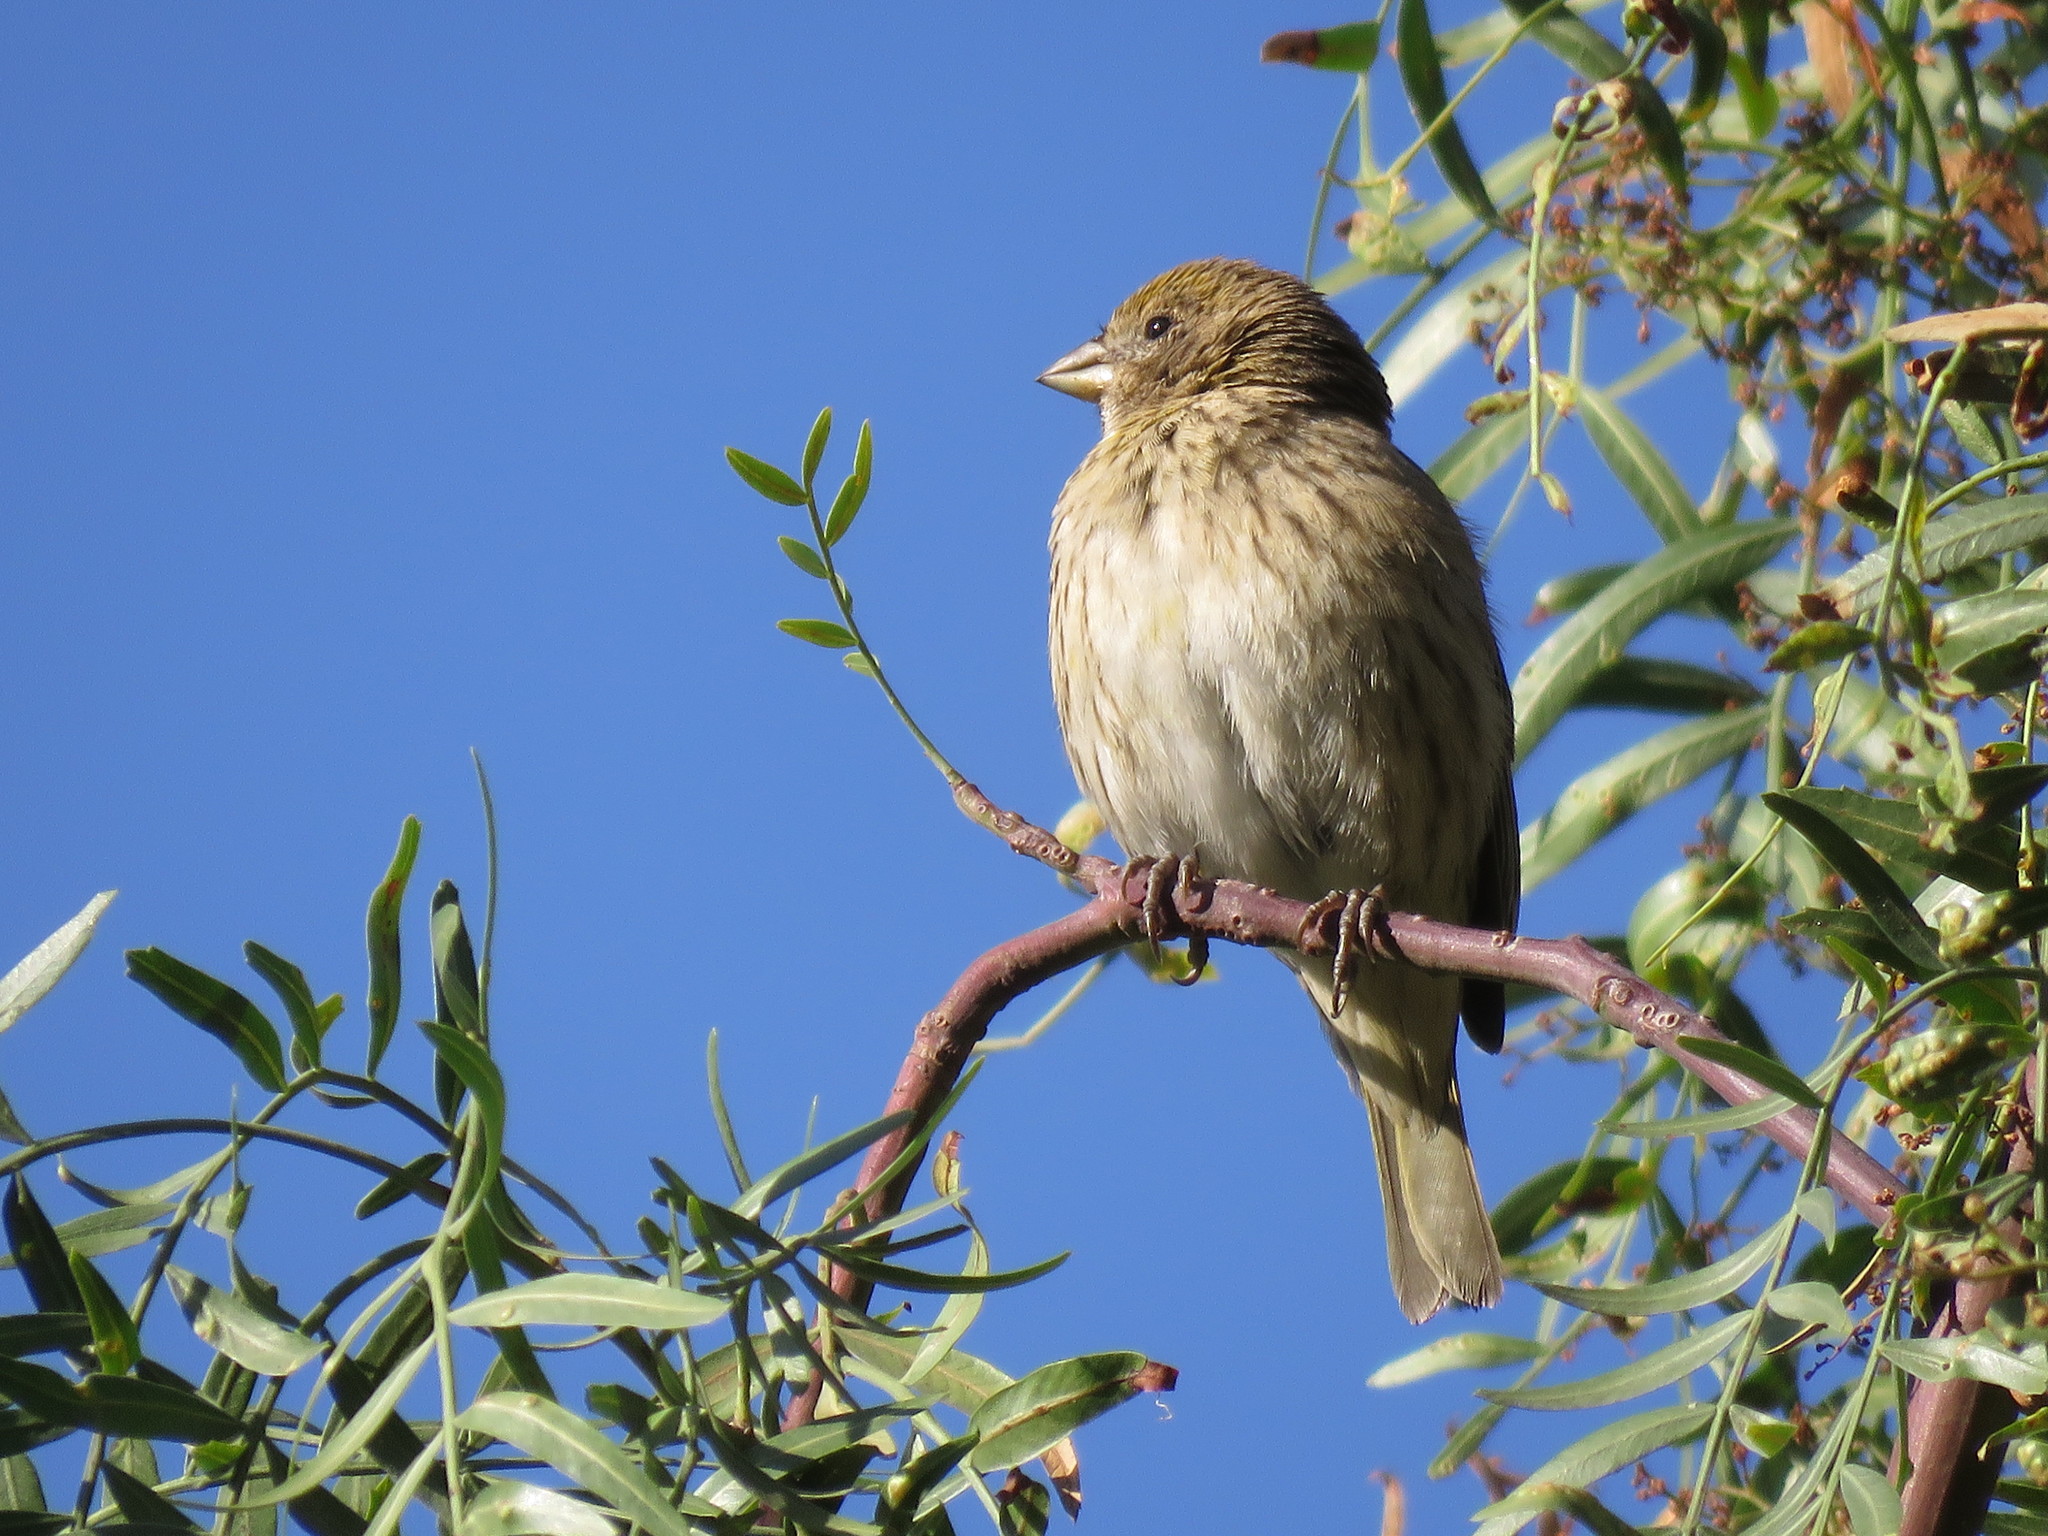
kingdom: Animalia
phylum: Chordata
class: Aves
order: Passeriformes
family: Thraupidae
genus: Volatinia
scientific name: Volatinia jacarina
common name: Blue-black grassquit
